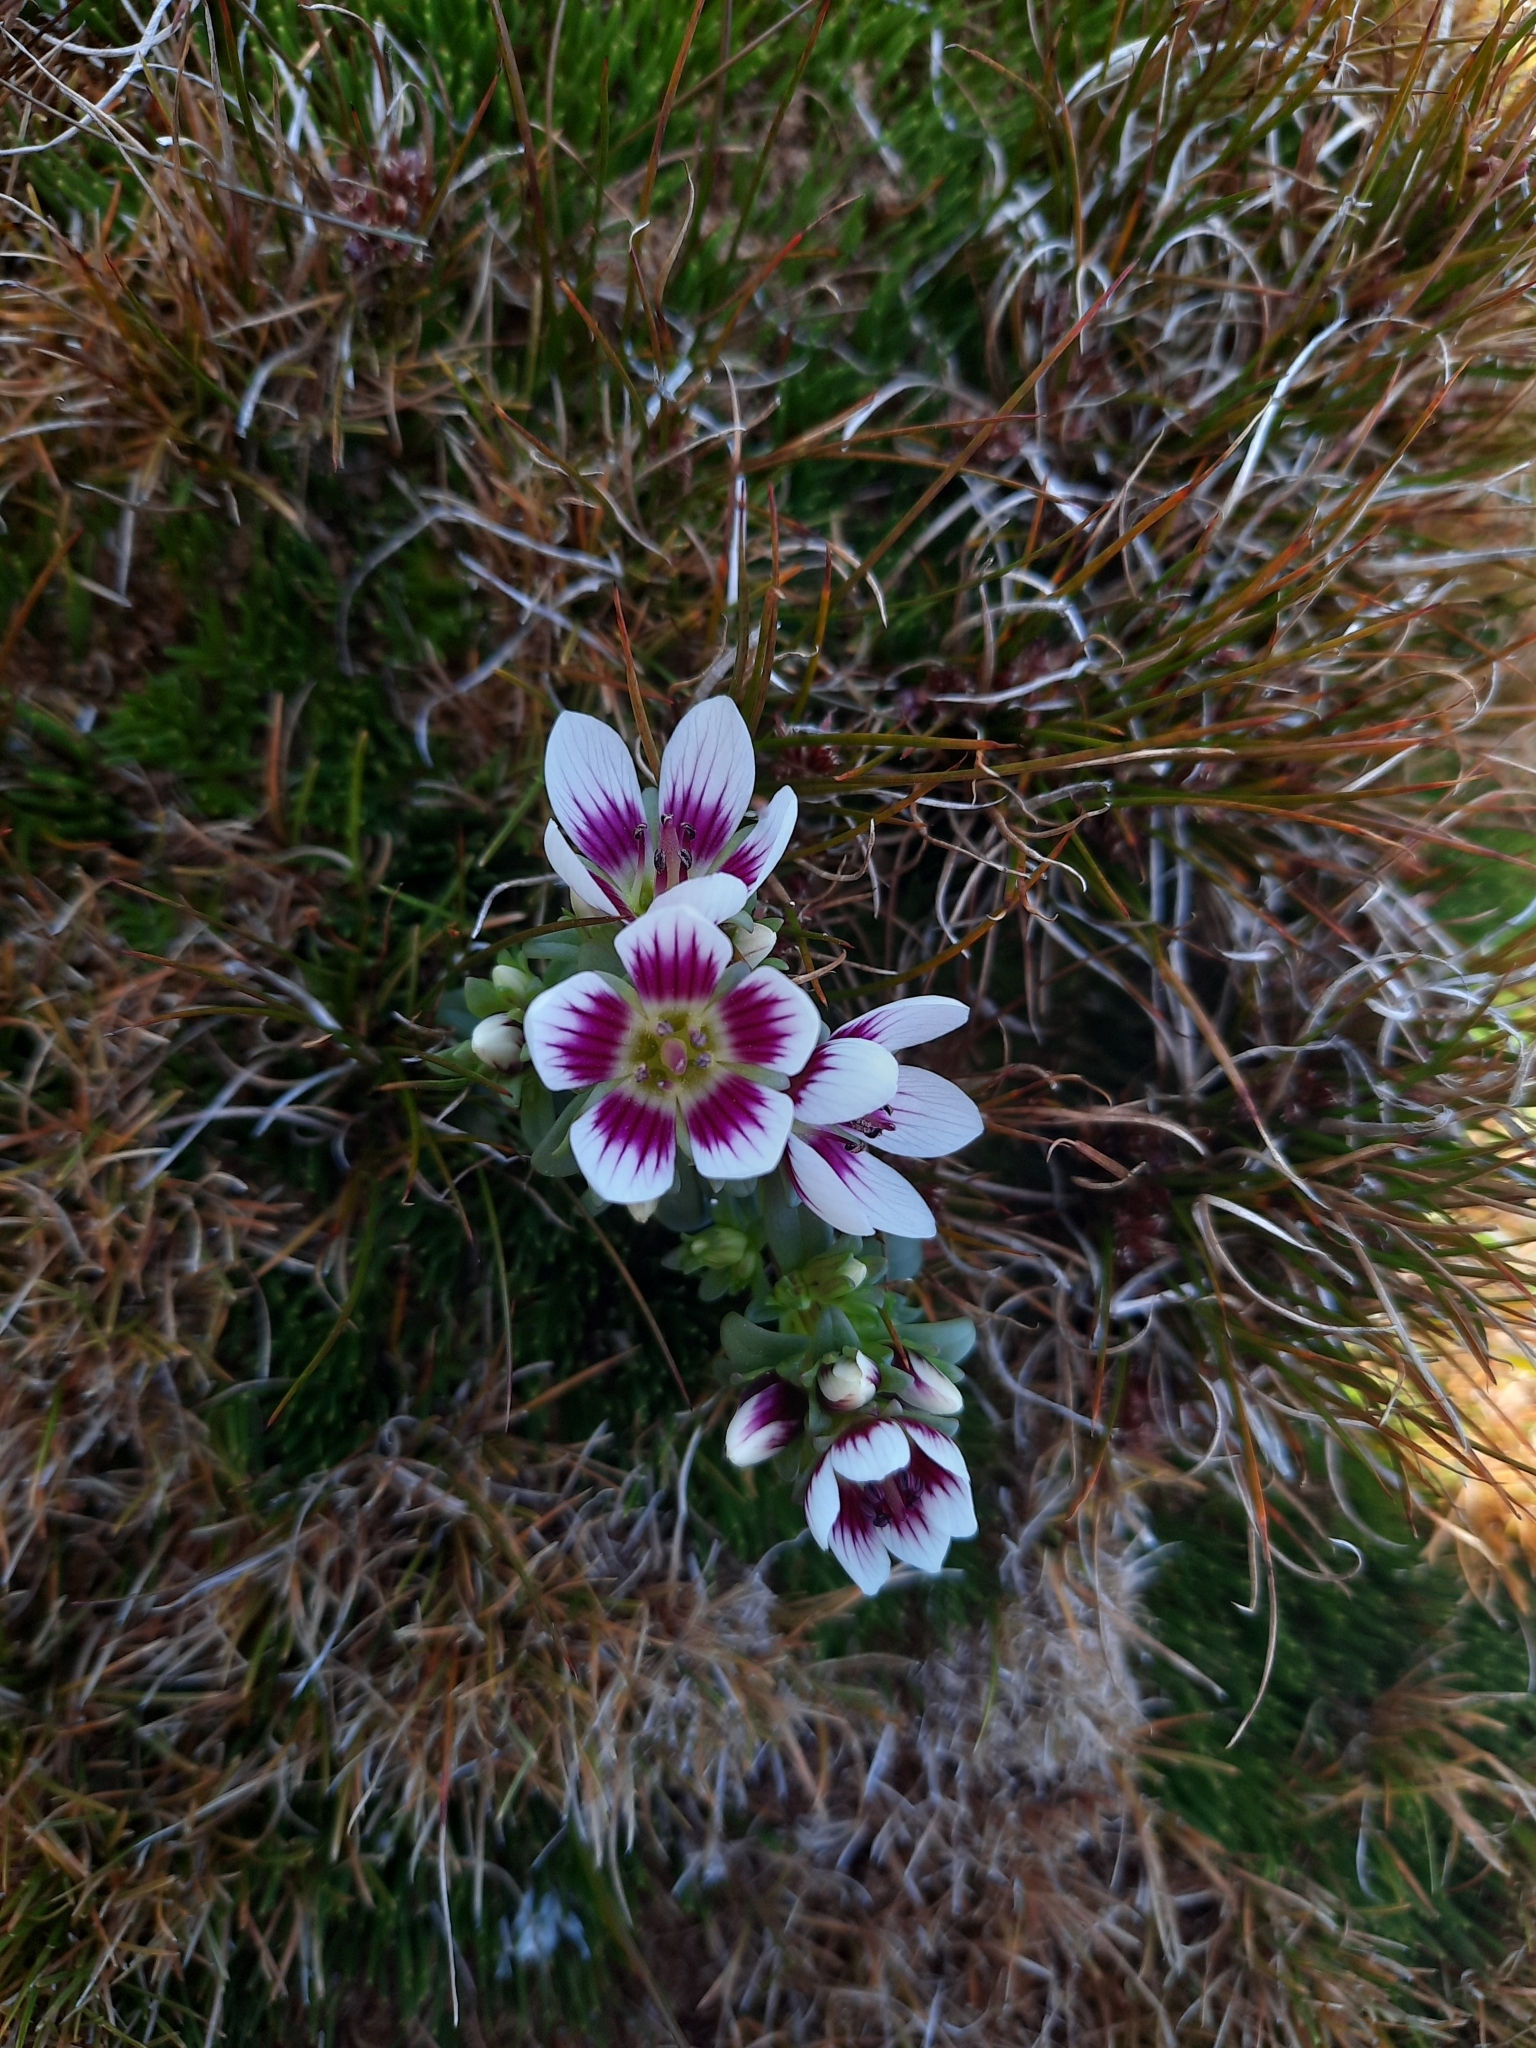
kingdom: Plantae
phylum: Tracheophyta
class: Magnoliopsida
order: Gentianales
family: Gentianaceae
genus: Gentianella
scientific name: Gentianella cerina
